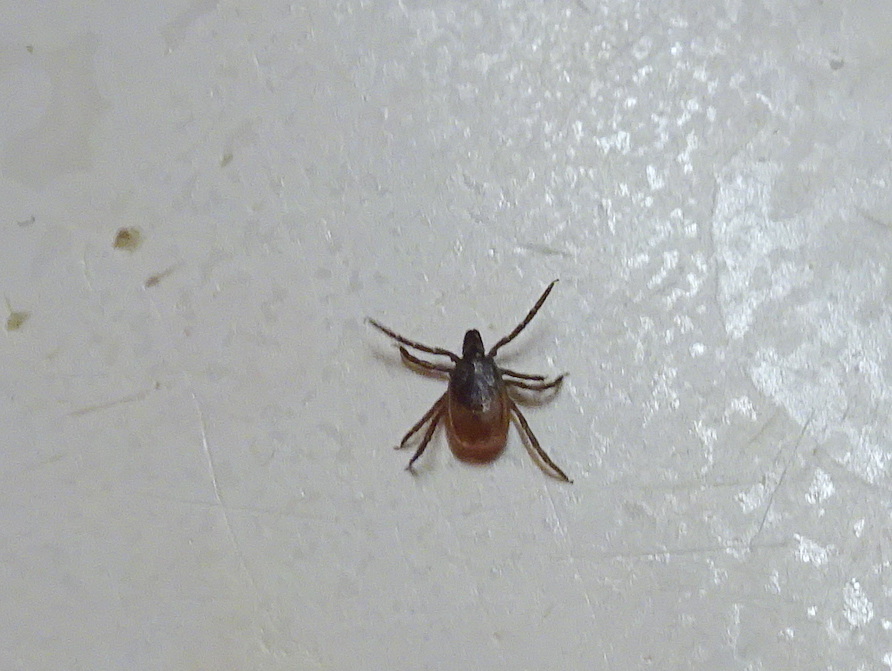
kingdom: Animalia
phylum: Arthropoda
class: Arachnida
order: Ixodida
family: Ixodidae
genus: Ixodes
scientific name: Ixodes scapularis
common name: Black legged tick
